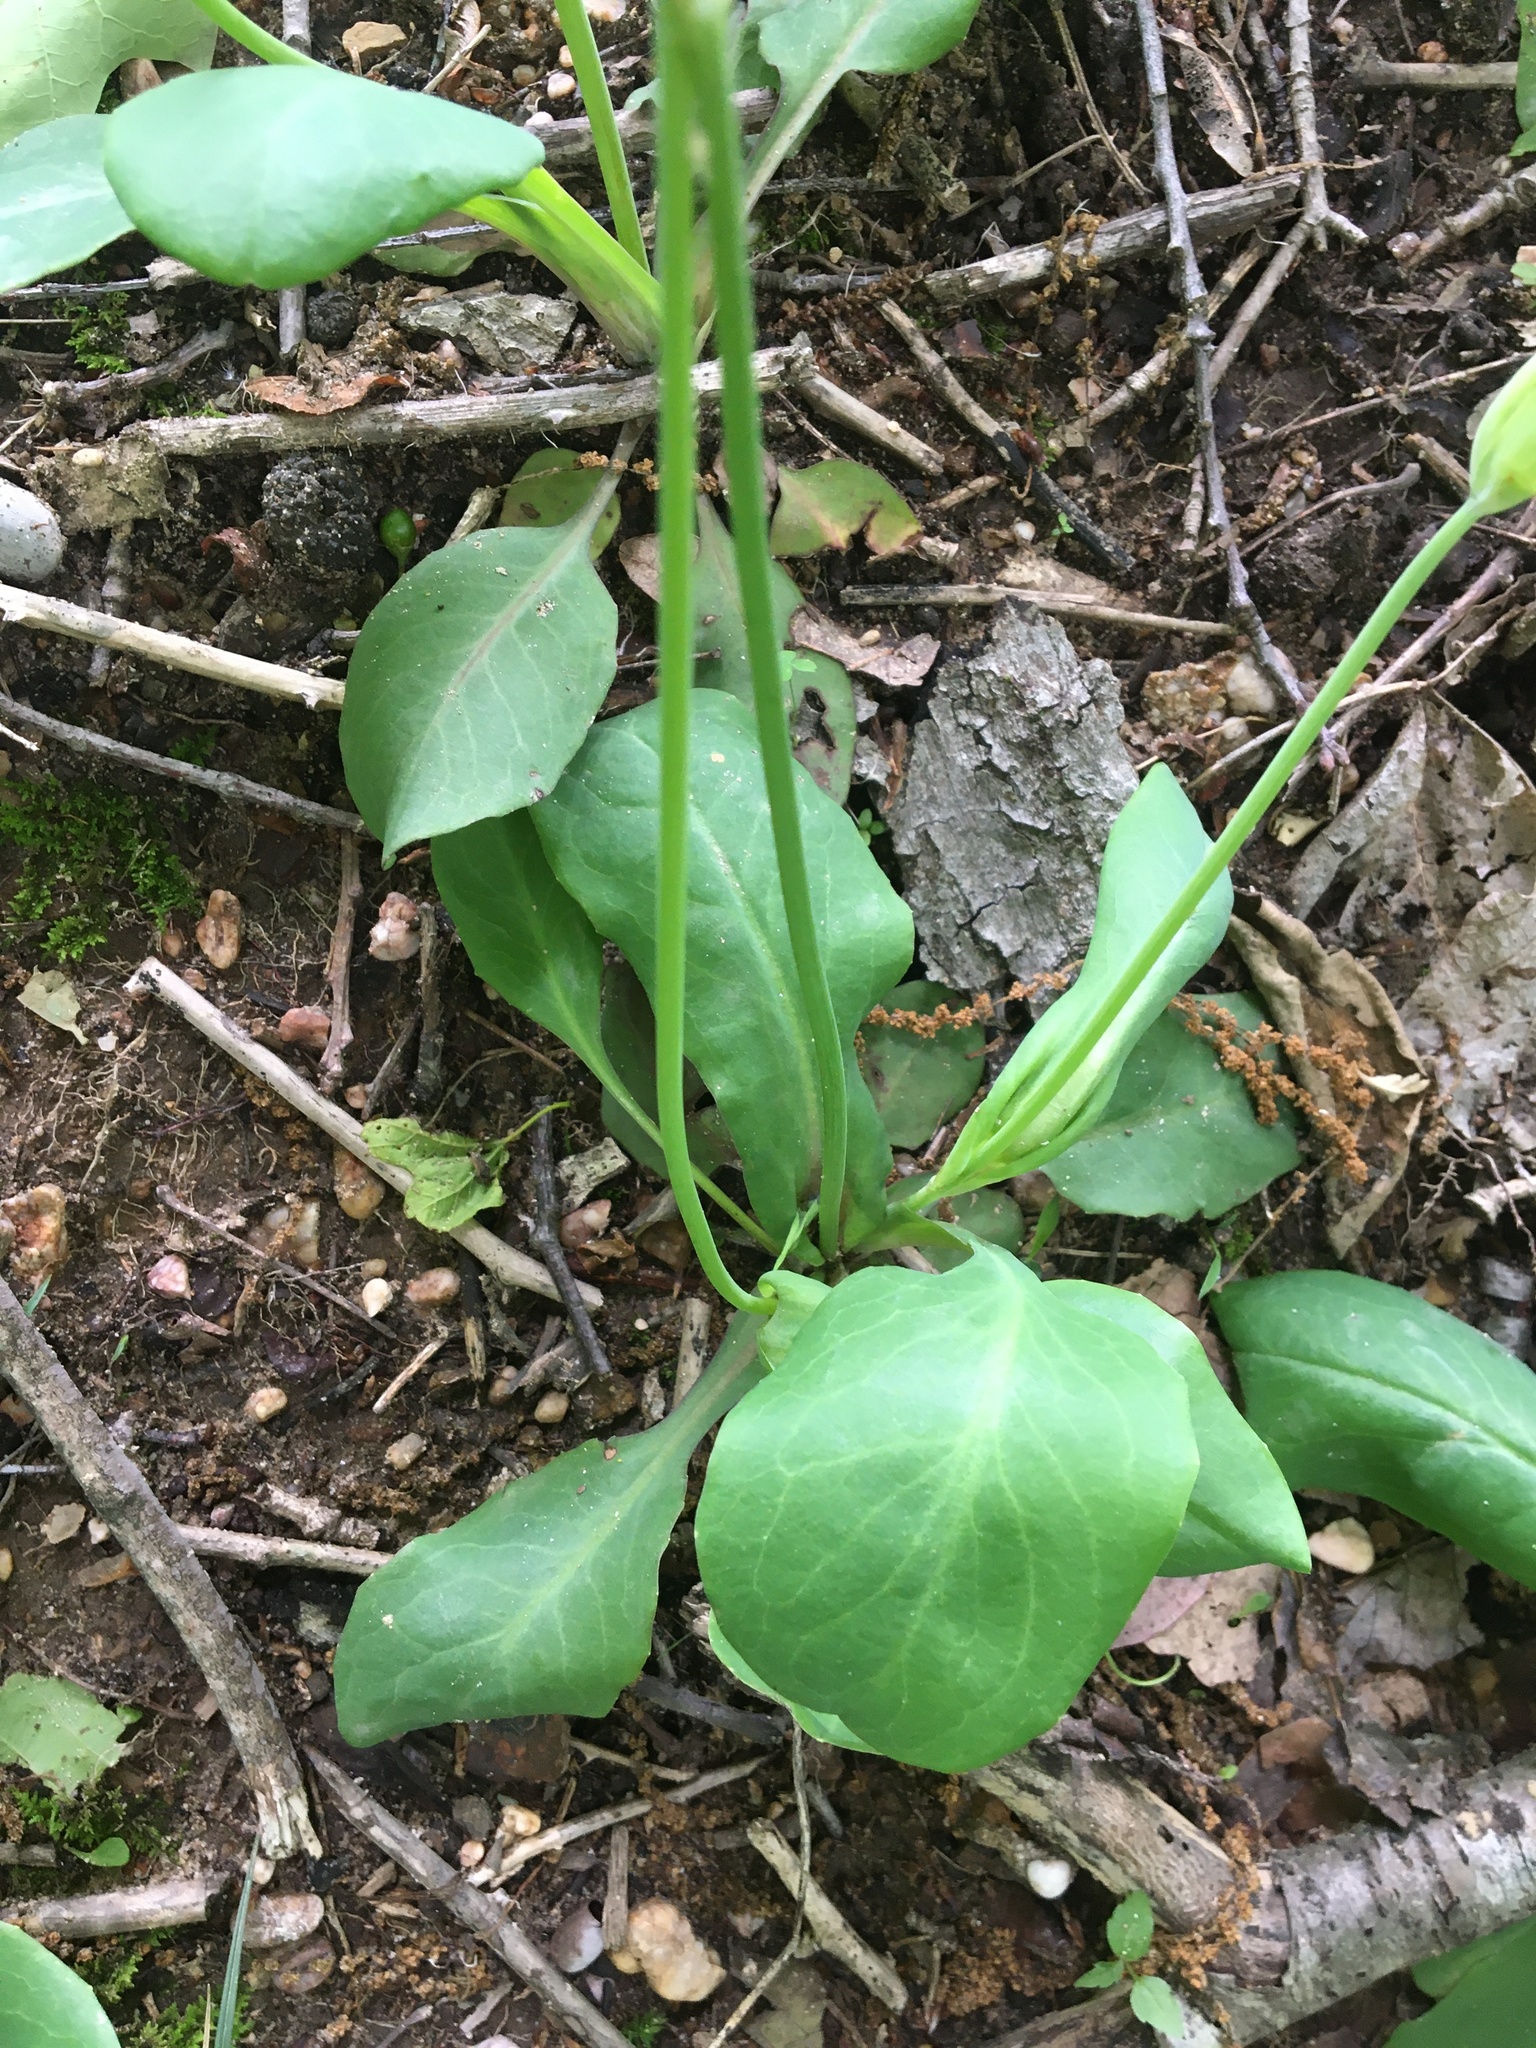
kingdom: Plantae
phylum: Tracheophyta
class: Magnoliopsida
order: Asterales
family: Asteraceae
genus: Krigia
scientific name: Krigia biflora
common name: Orange dwarf-dandelion
